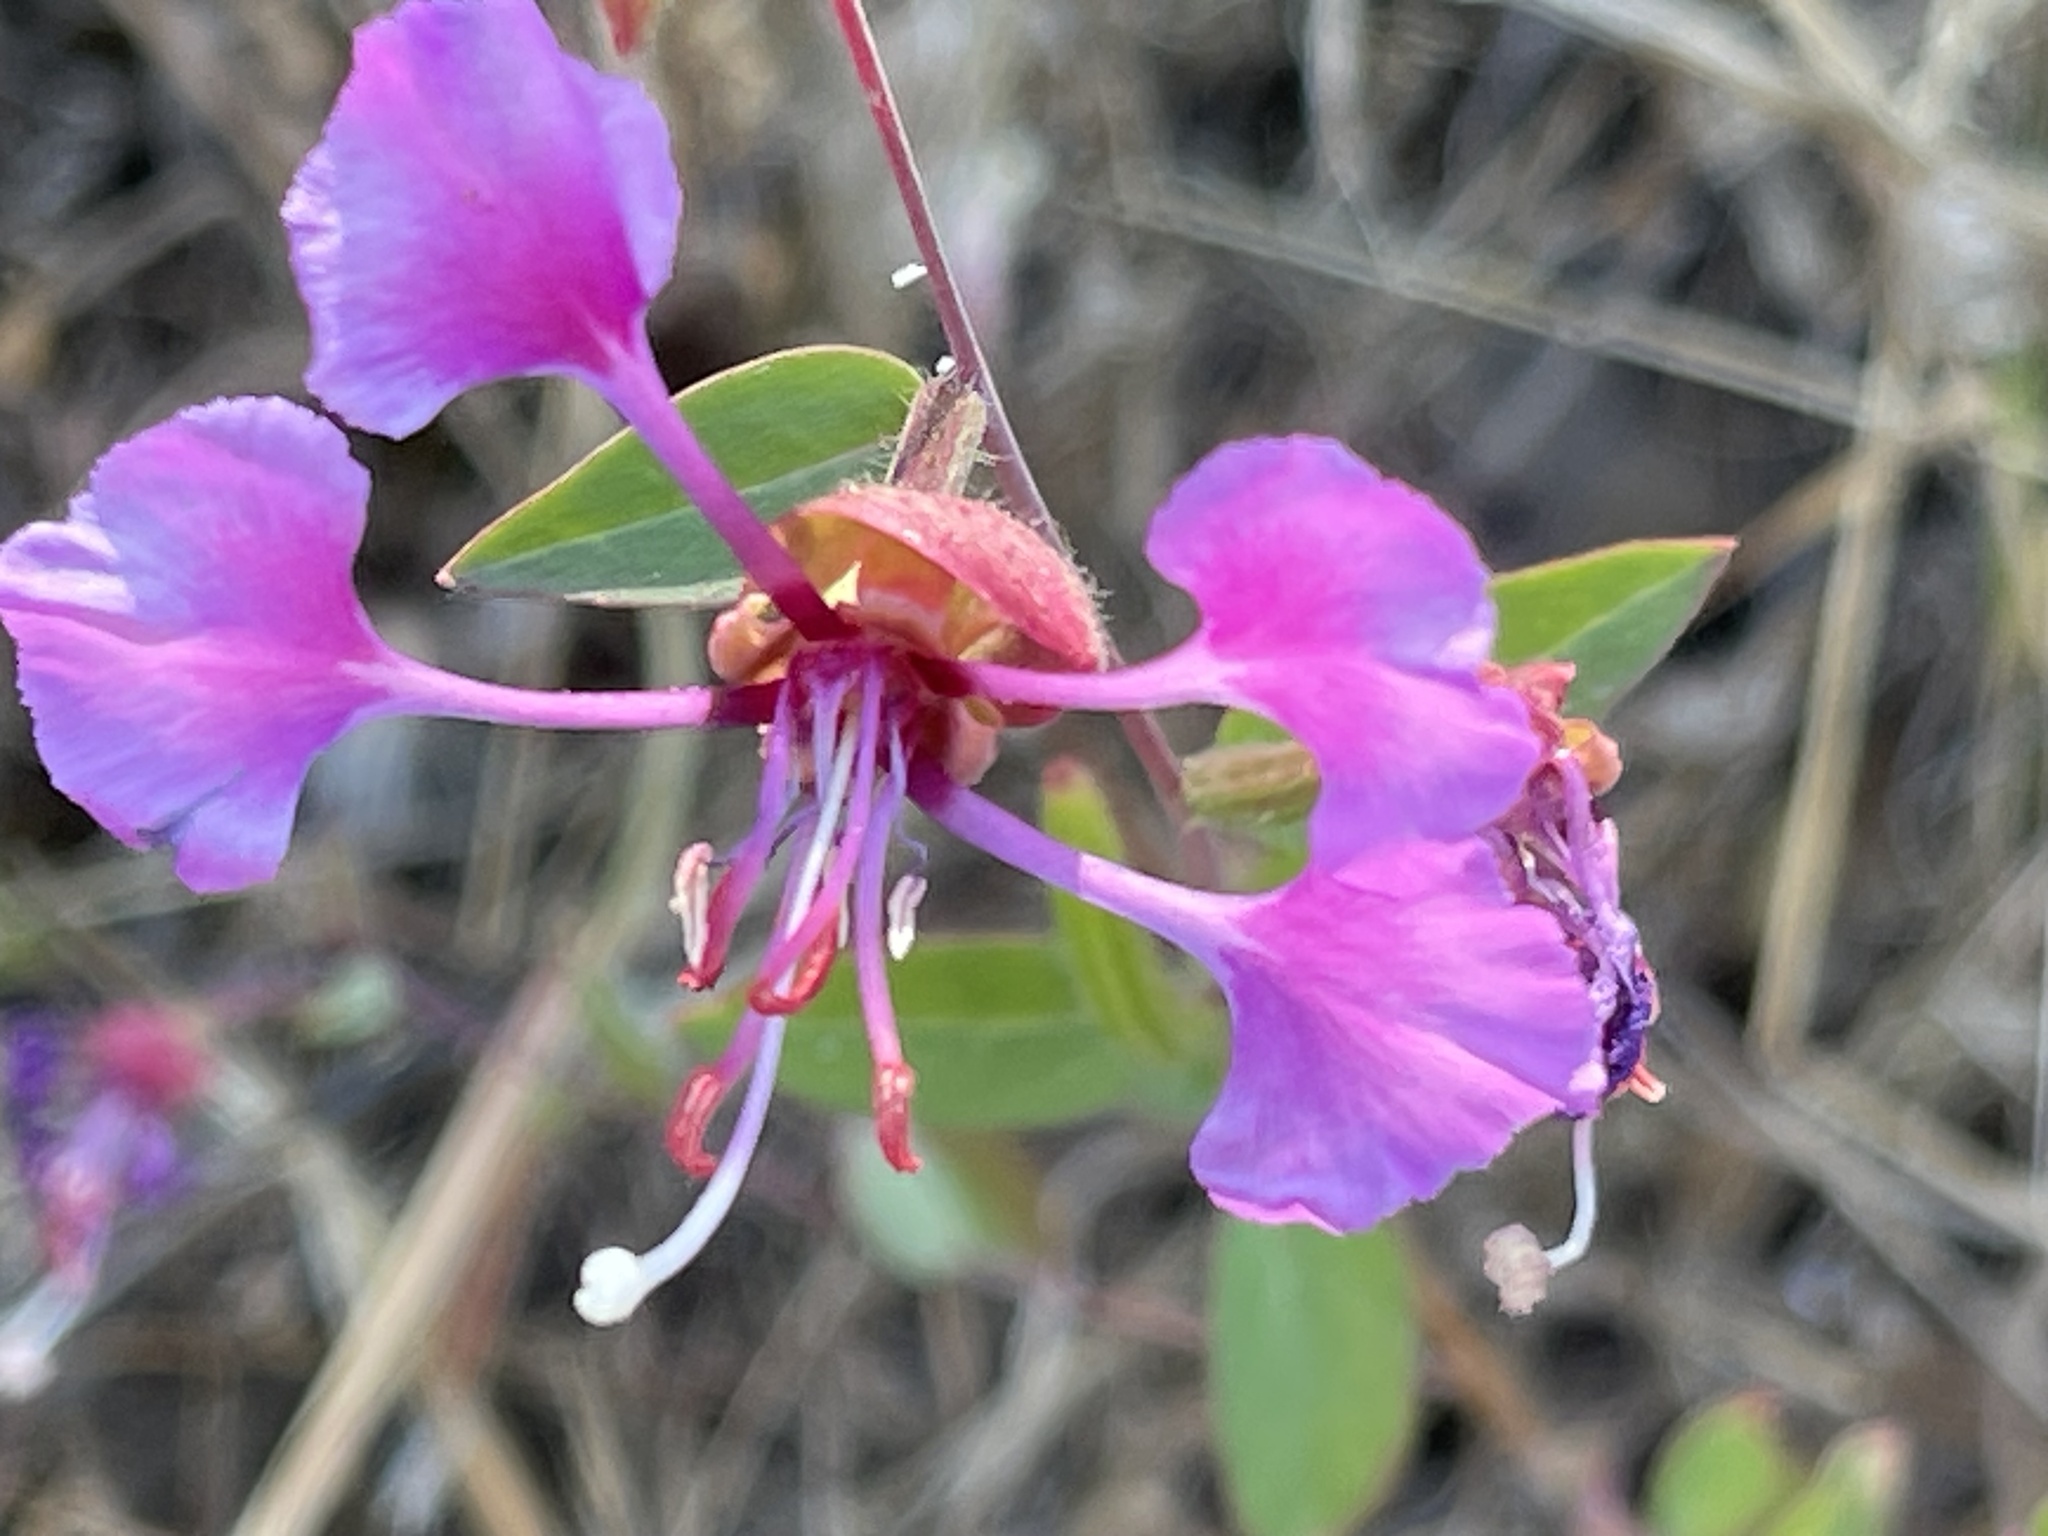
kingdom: Plantae
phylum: Tracheophyta
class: Magnoliopsida
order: Myrtales
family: Onagraceae
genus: Clarkia
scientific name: Clarkia unguiculata
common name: Clarkia
